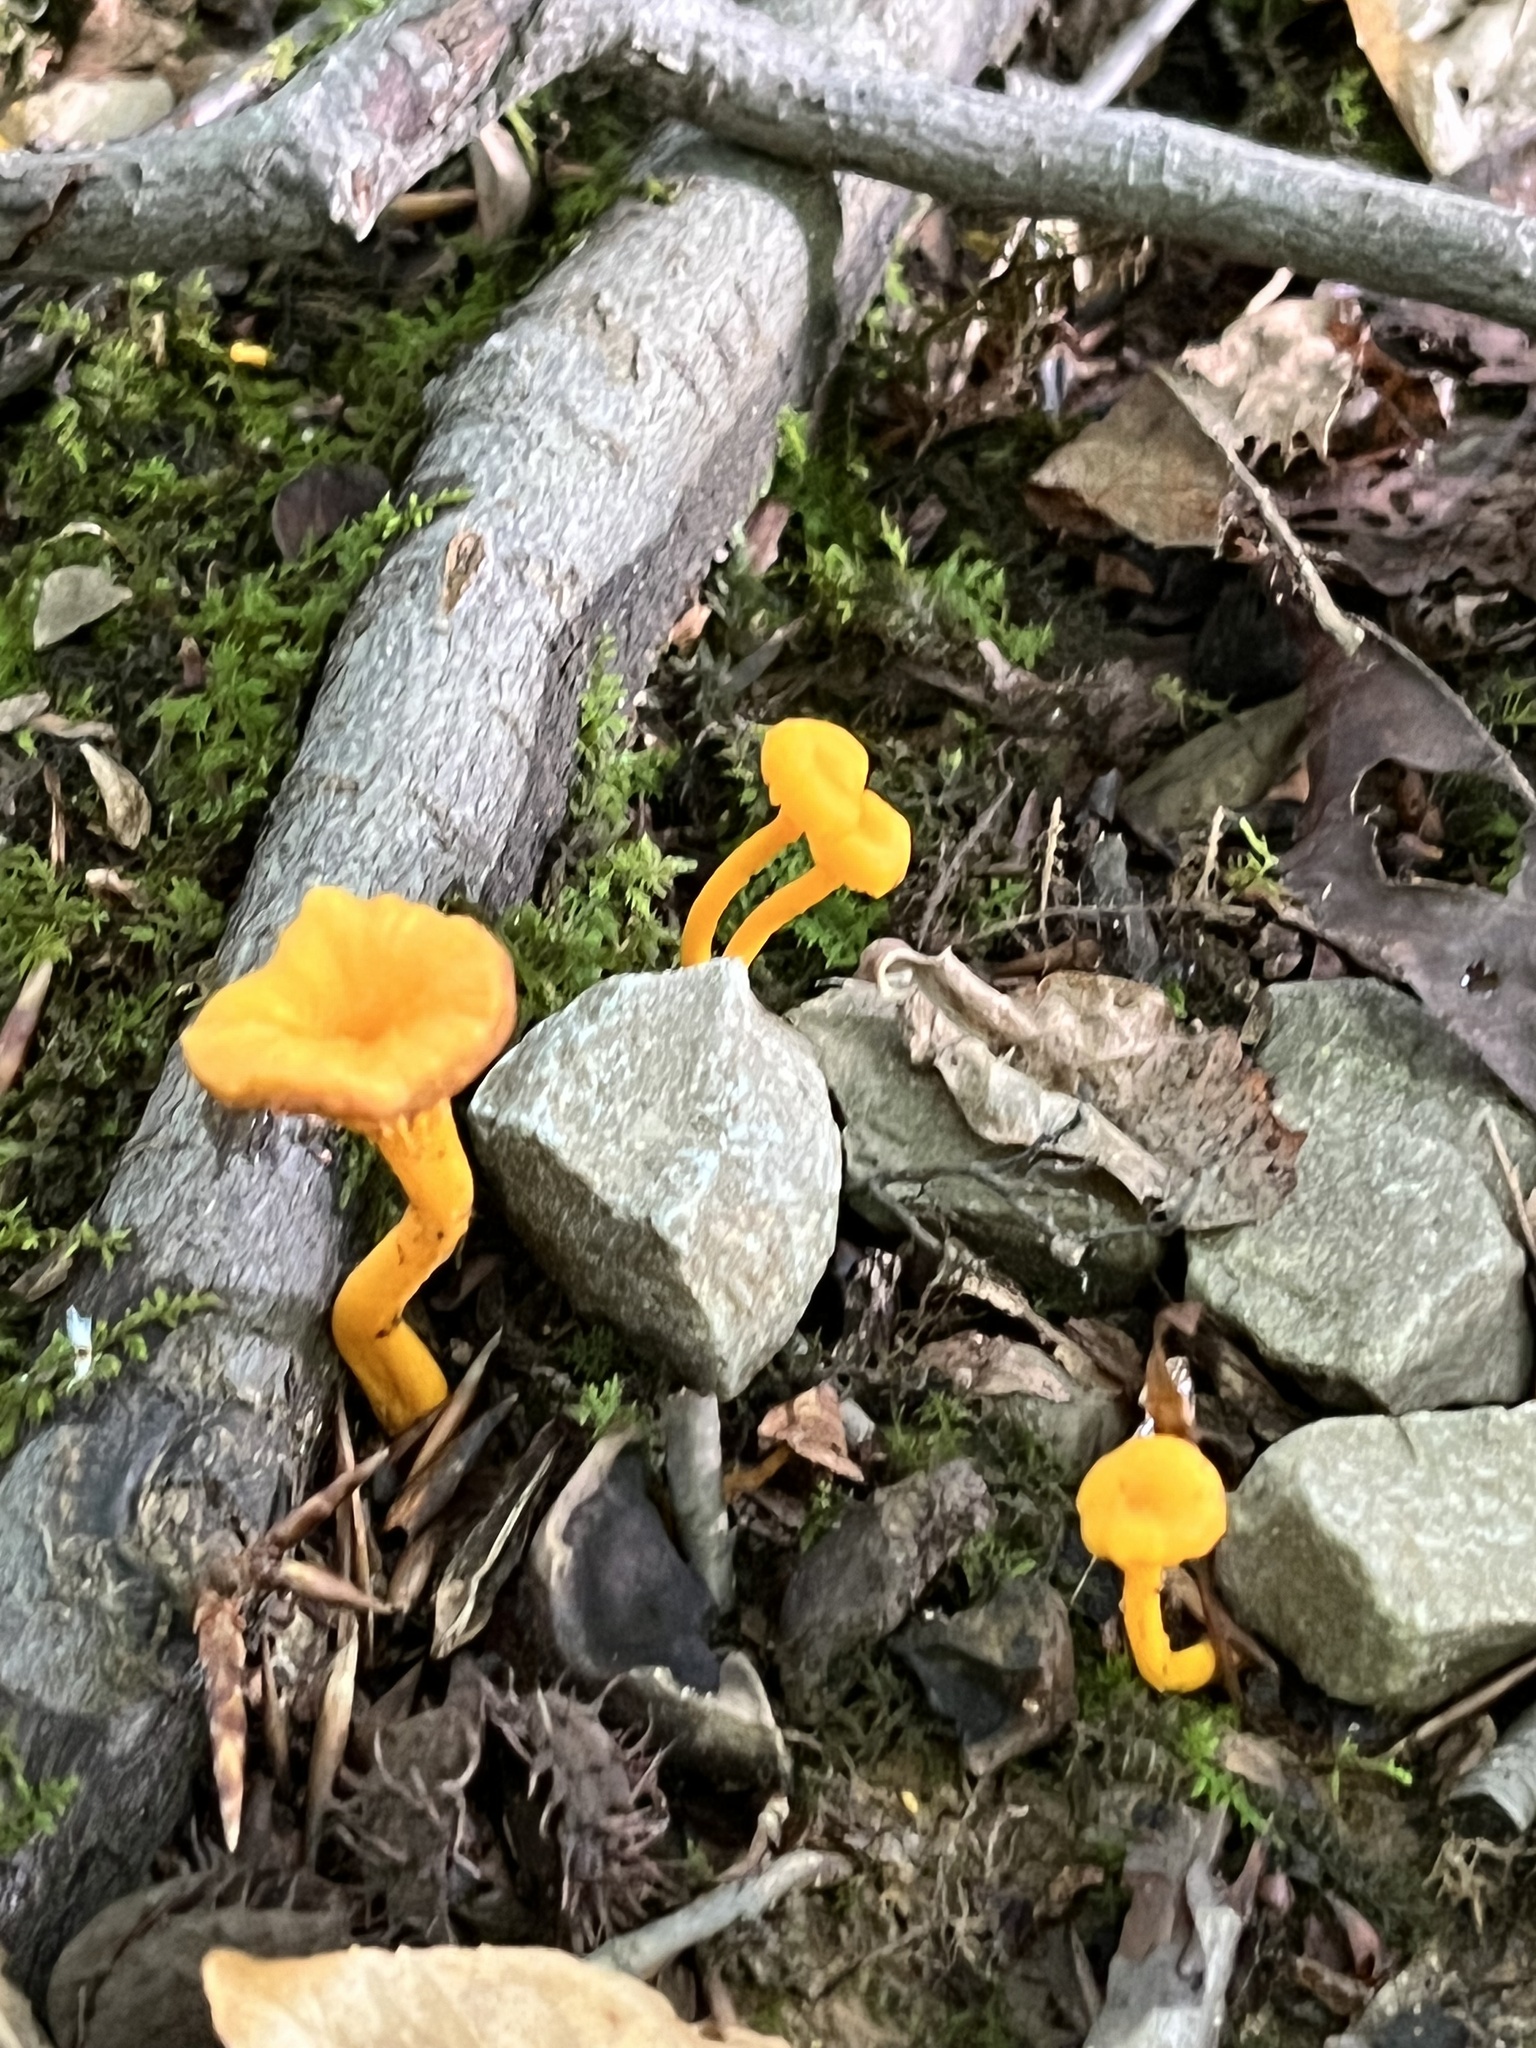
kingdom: Fungi
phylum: Basidiomycota
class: Agaricomycetes
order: Cantharellales
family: Hydnaceae
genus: Cantharellus
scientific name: Cantharellus minor
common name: Small chanterelle
